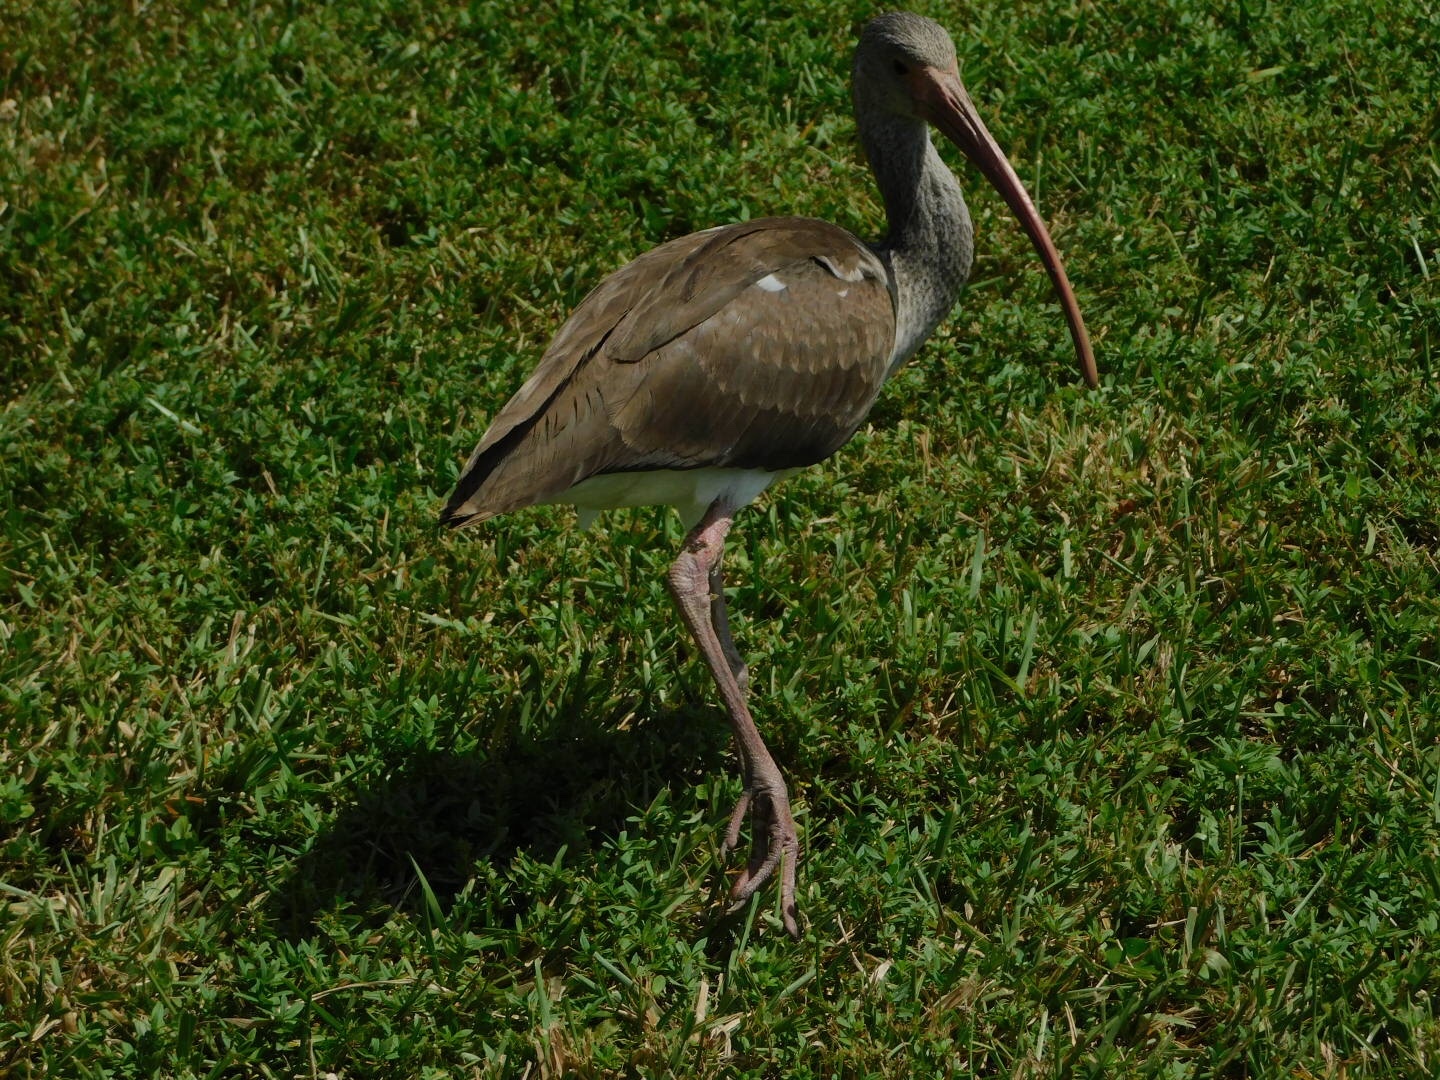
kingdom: Animalia
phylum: Chordata
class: Aves
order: Pelecaniformes
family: Threskiornithidae
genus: Eudocimus
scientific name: Eudocimus albus
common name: White ibis
